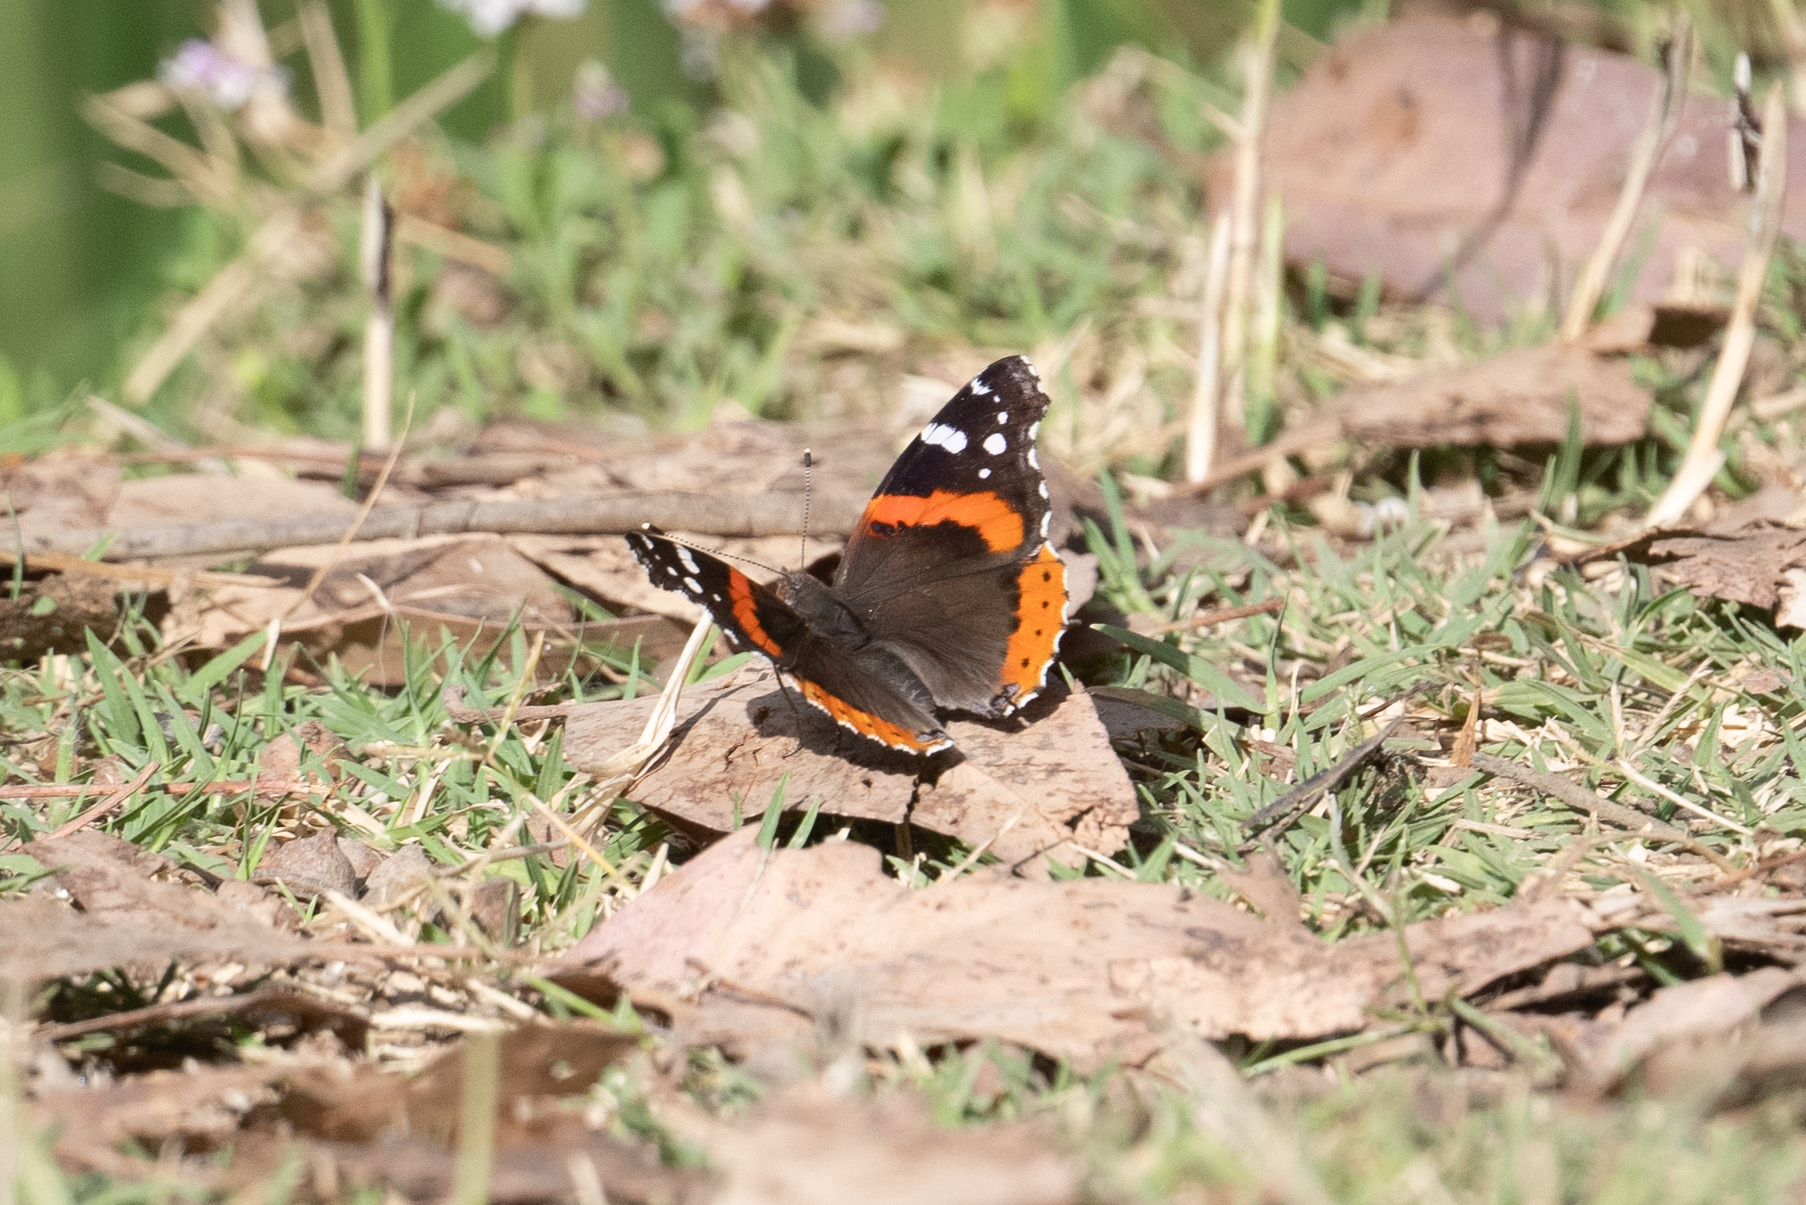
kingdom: Animalia
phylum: Arthropoda
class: Insecta
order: Lepidoptera
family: Nymphalidae
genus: Vanessa
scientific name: Vanessa atalanta
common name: Red admiral
